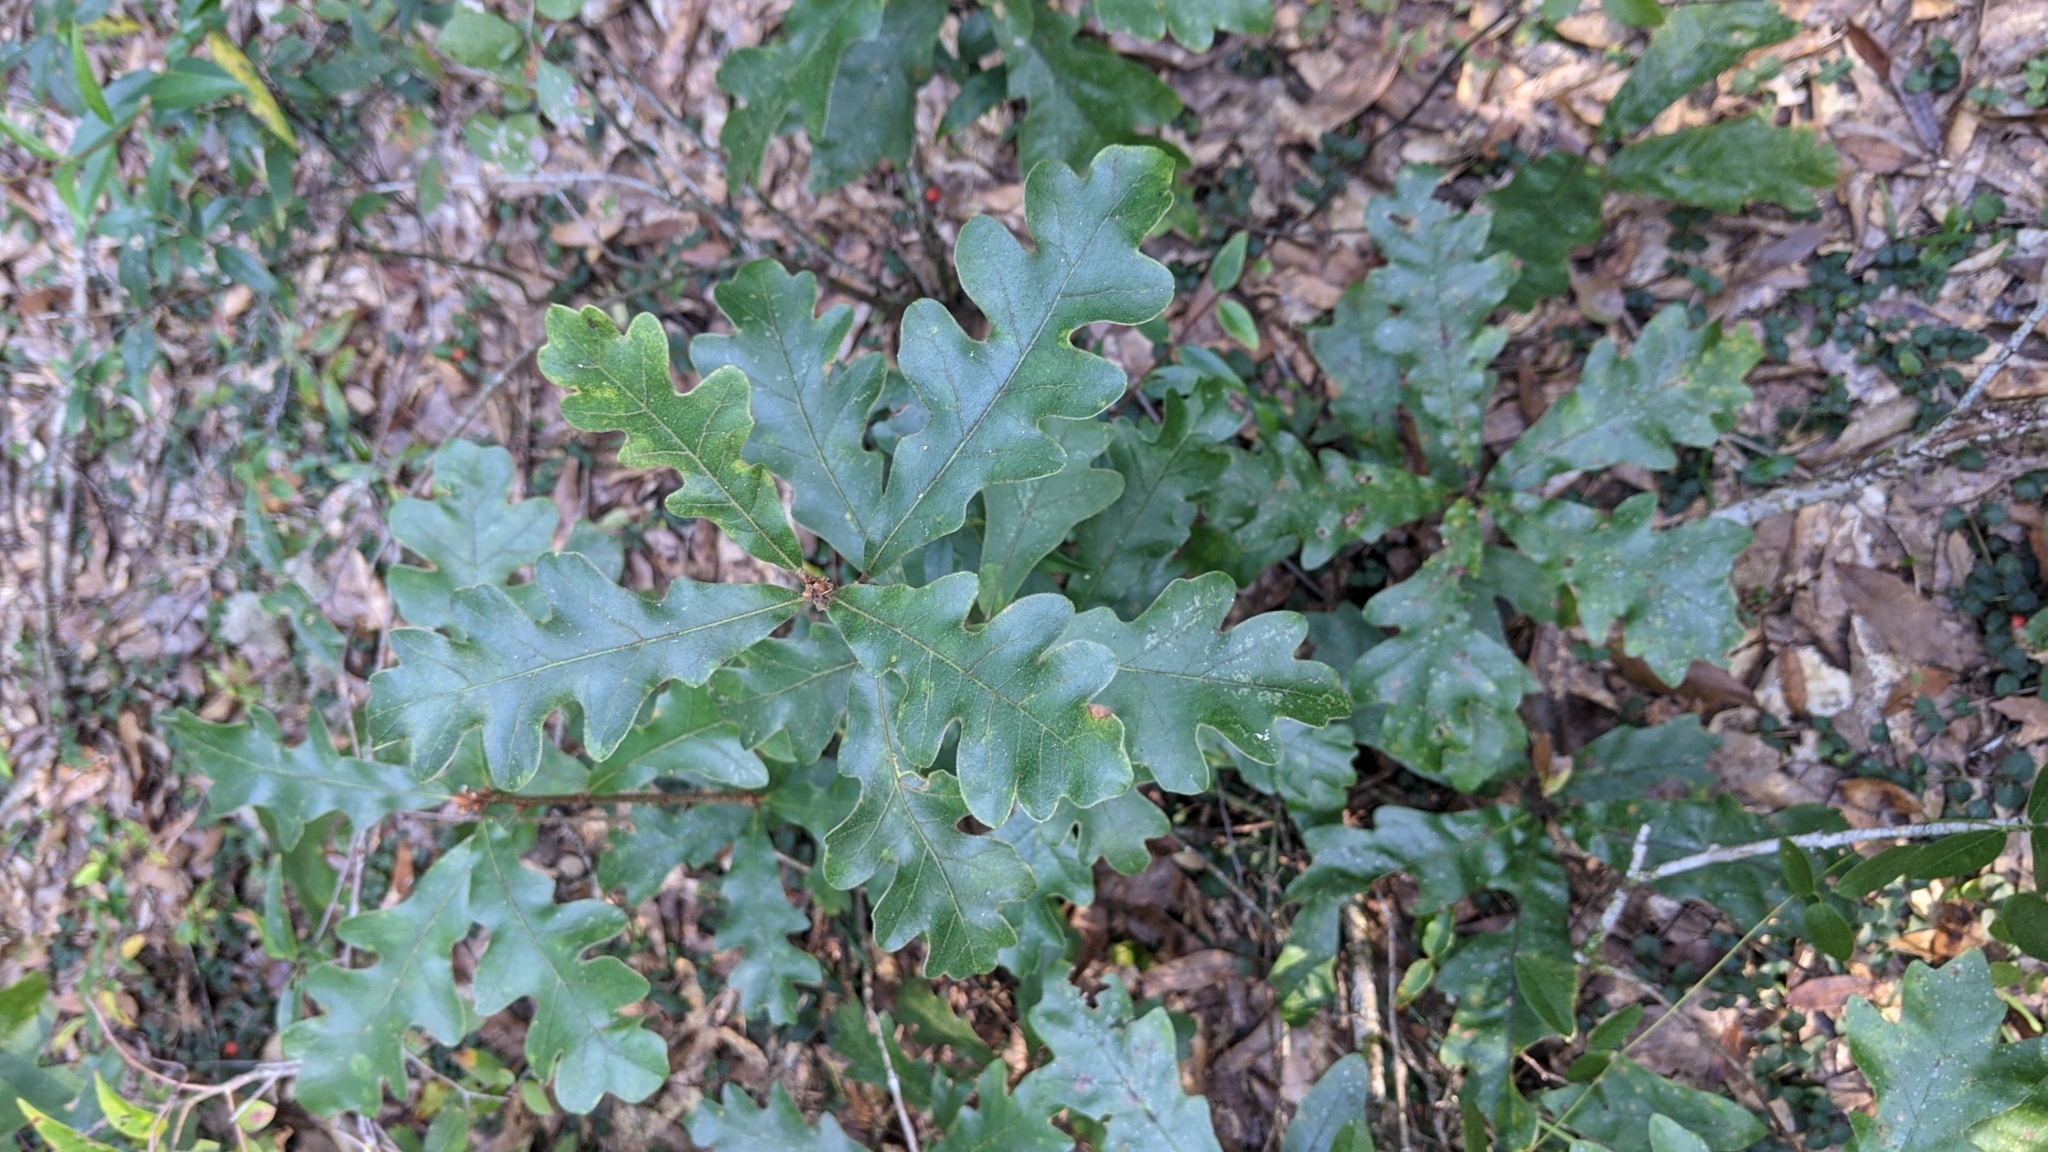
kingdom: Plantae
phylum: Tracheophyta
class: Magnoliopsida
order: Fagales
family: Fagaceae
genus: Quercus
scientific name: Quercus margaretiae
